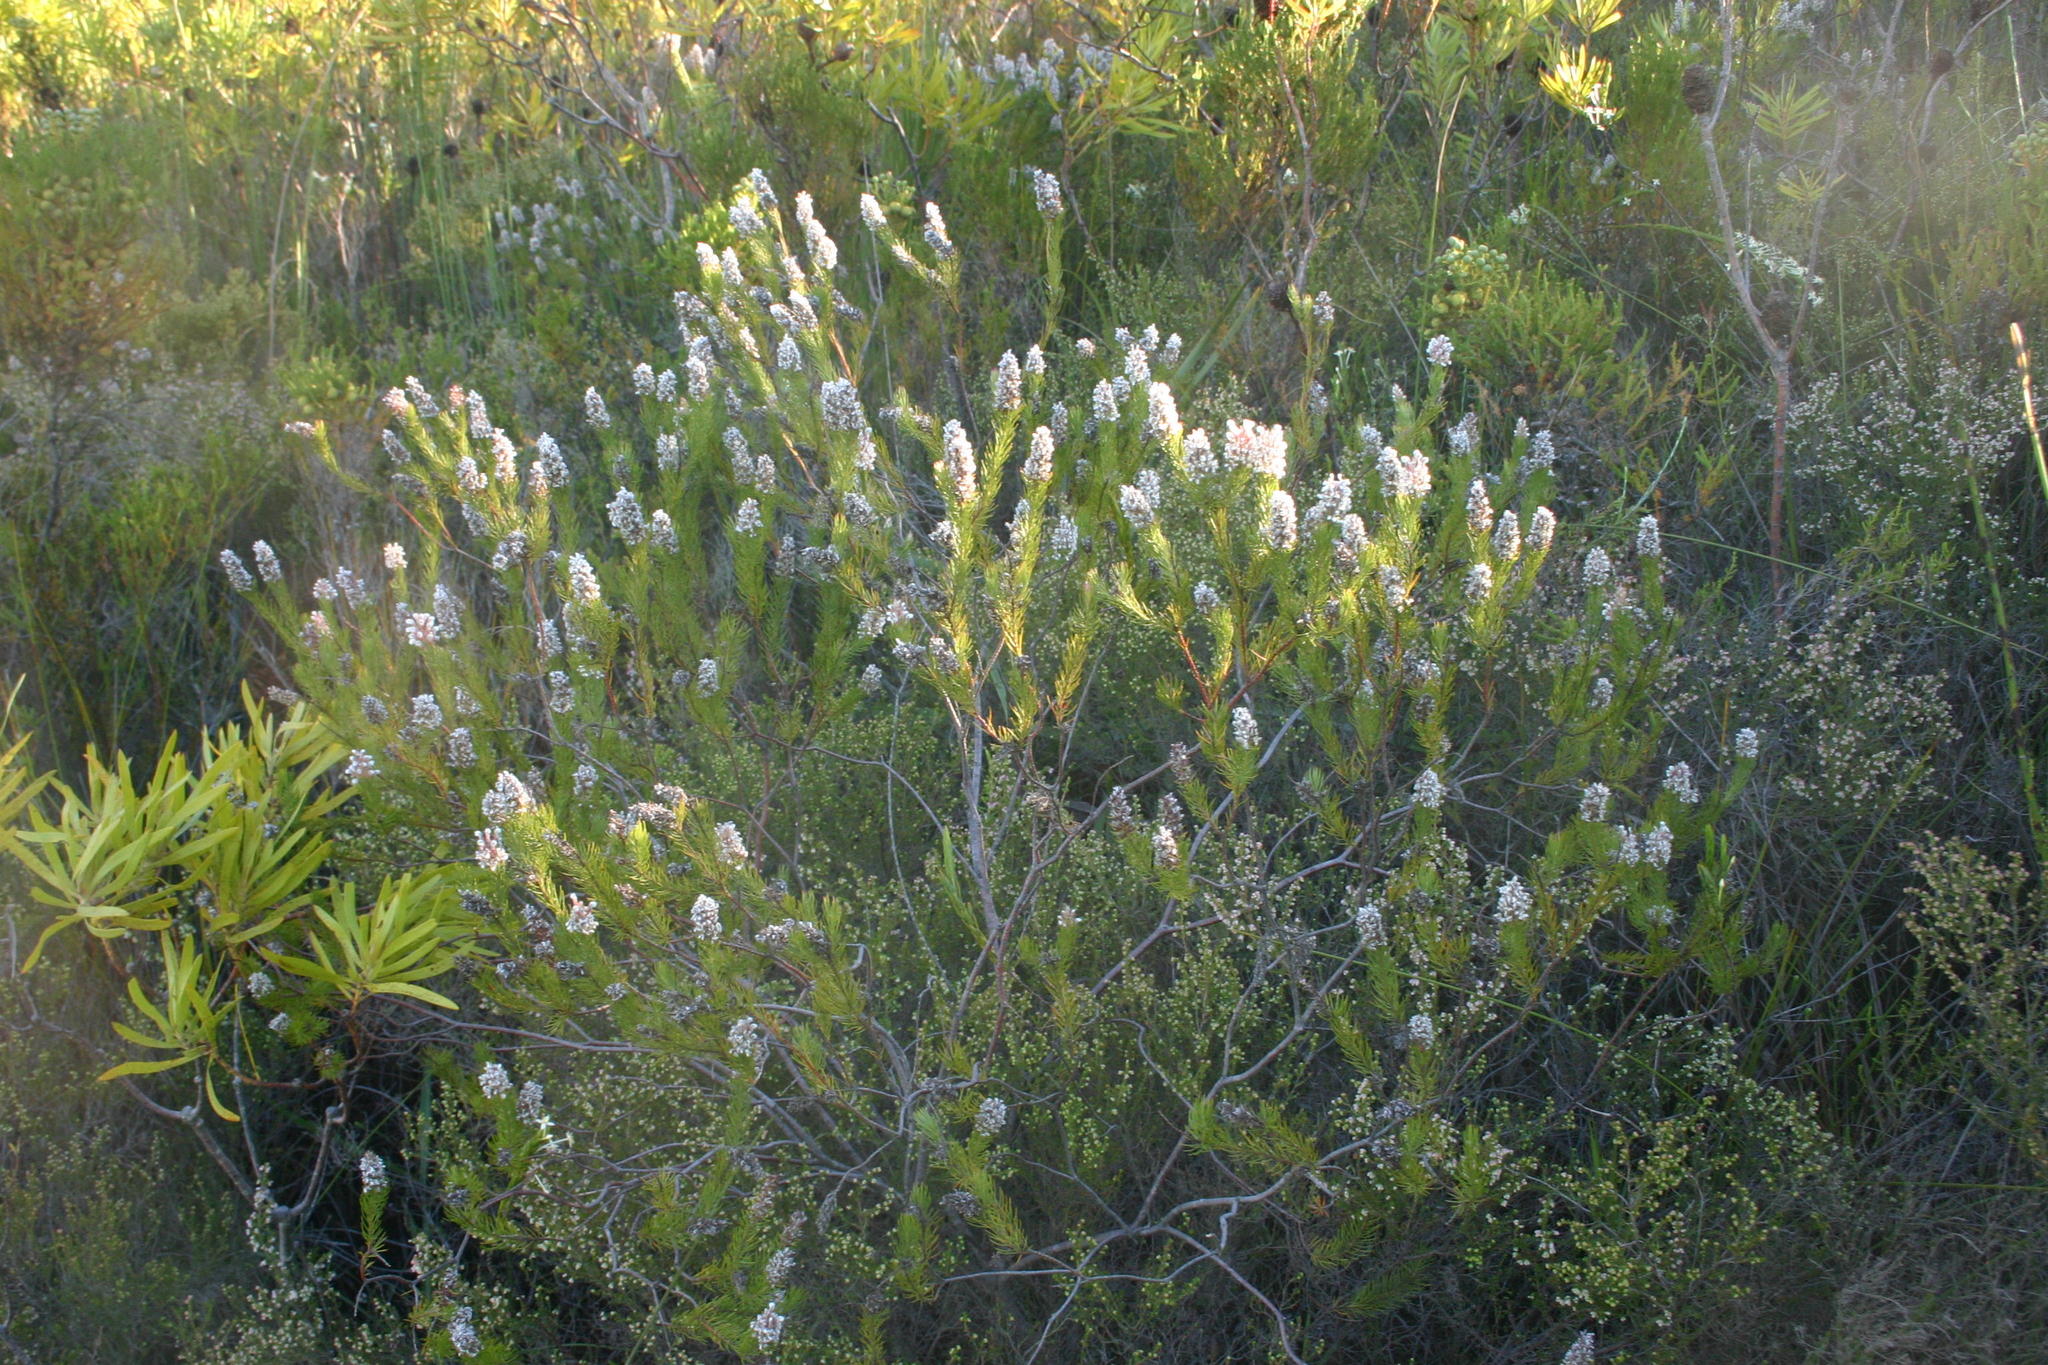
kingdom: Plantae
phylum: Tracheophyta
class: Magnoliopsida
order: Proteales
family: Proteaceae
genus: Spatalla
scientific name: Spatalla parilis
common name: Spike spoon
